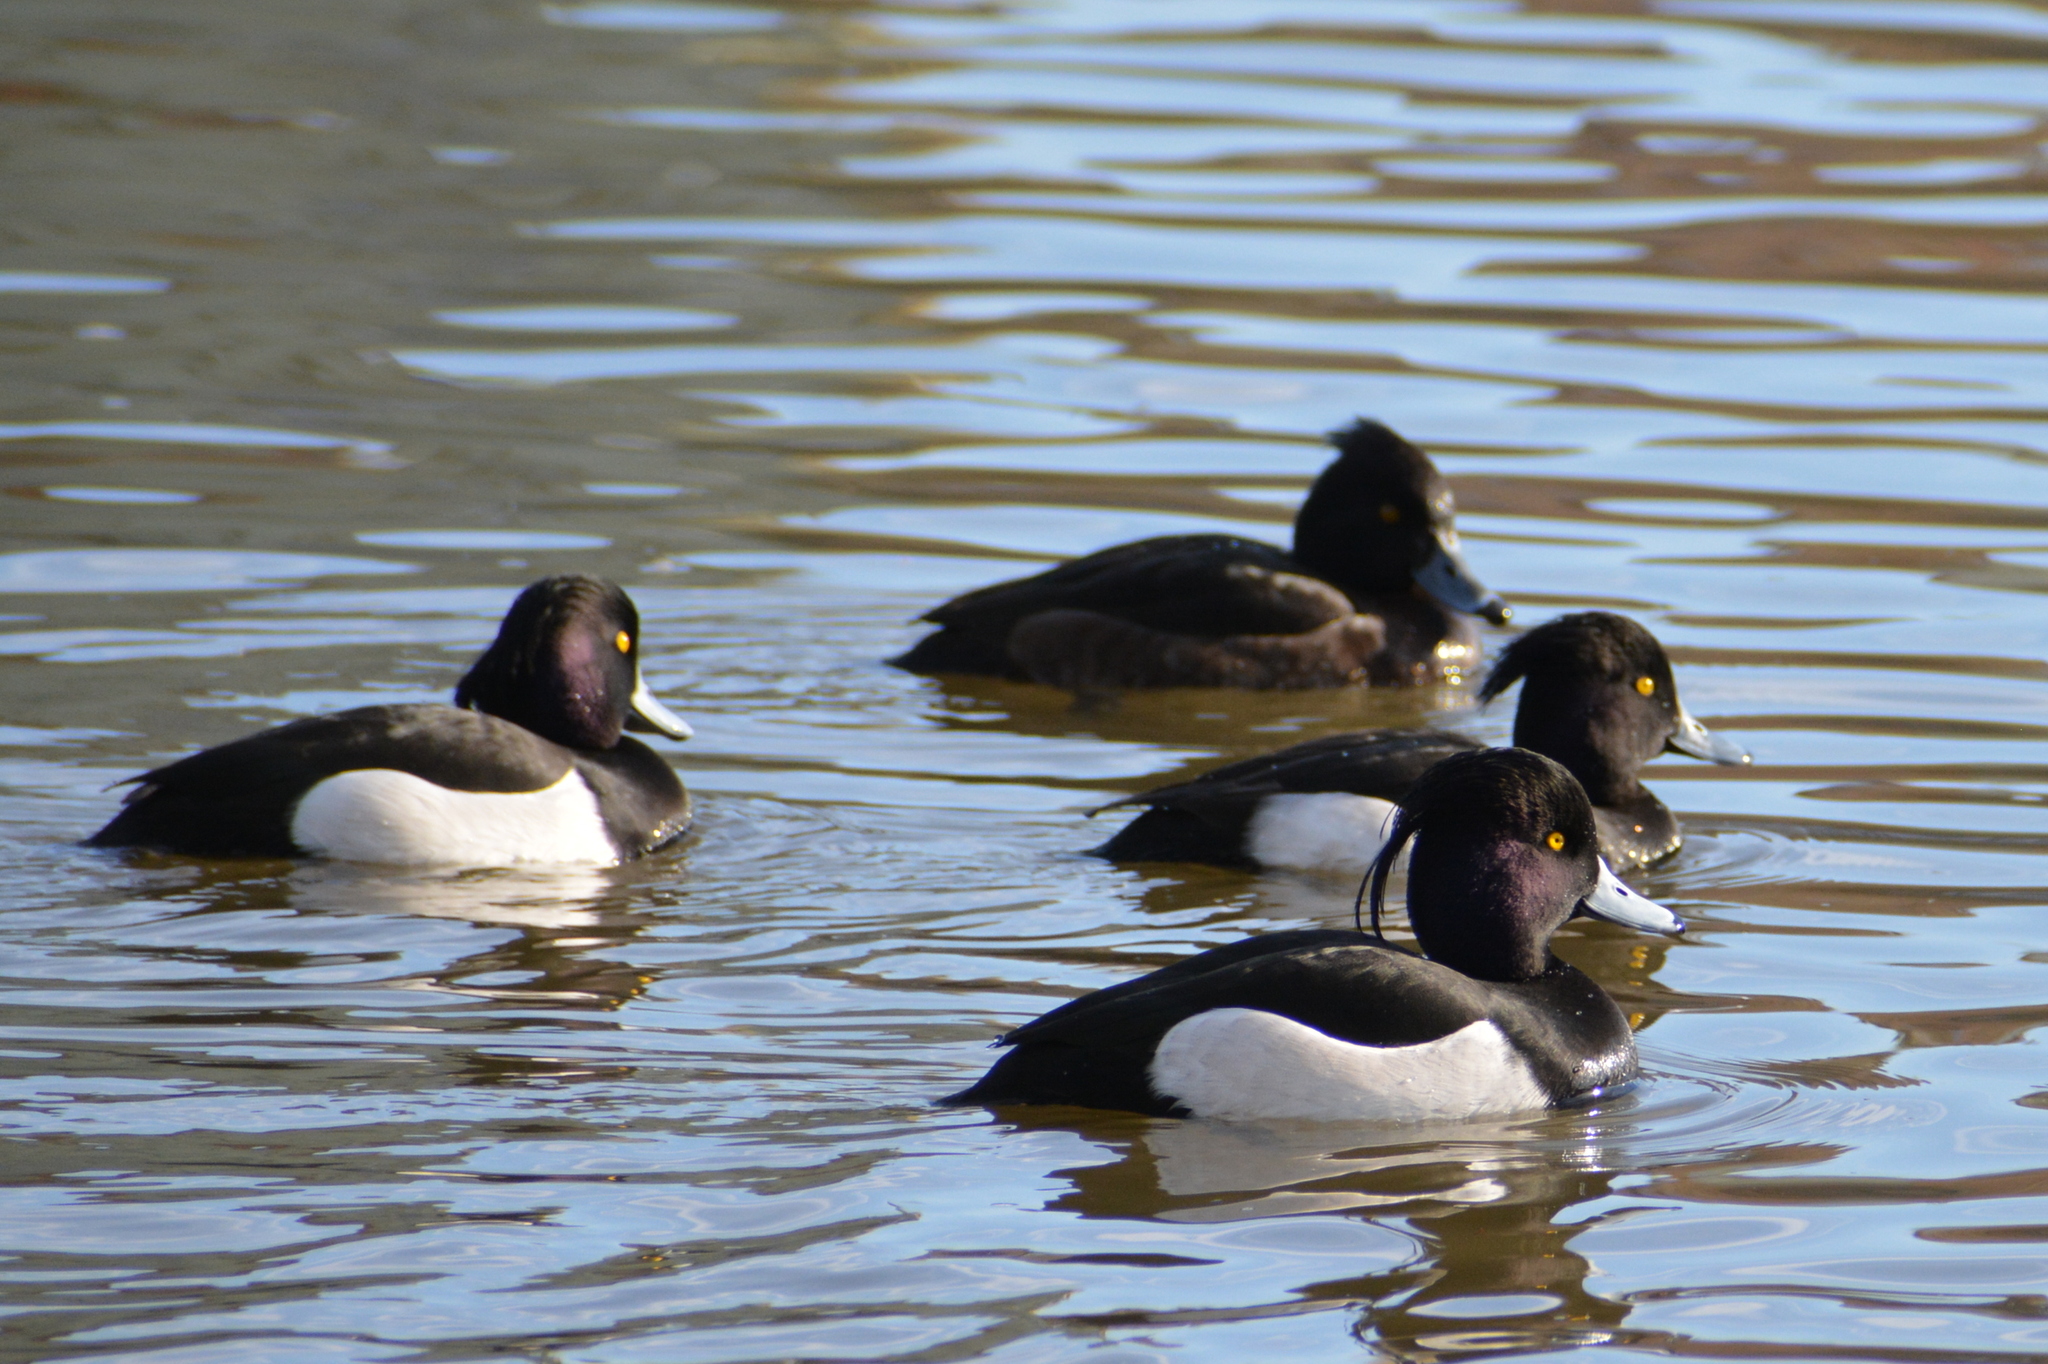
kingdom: Animalia
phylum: Chordata
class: Aves
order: Anseriformes
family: Anatidae
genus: Aythya
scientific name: Aythya fuligula
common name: Tufted duck
